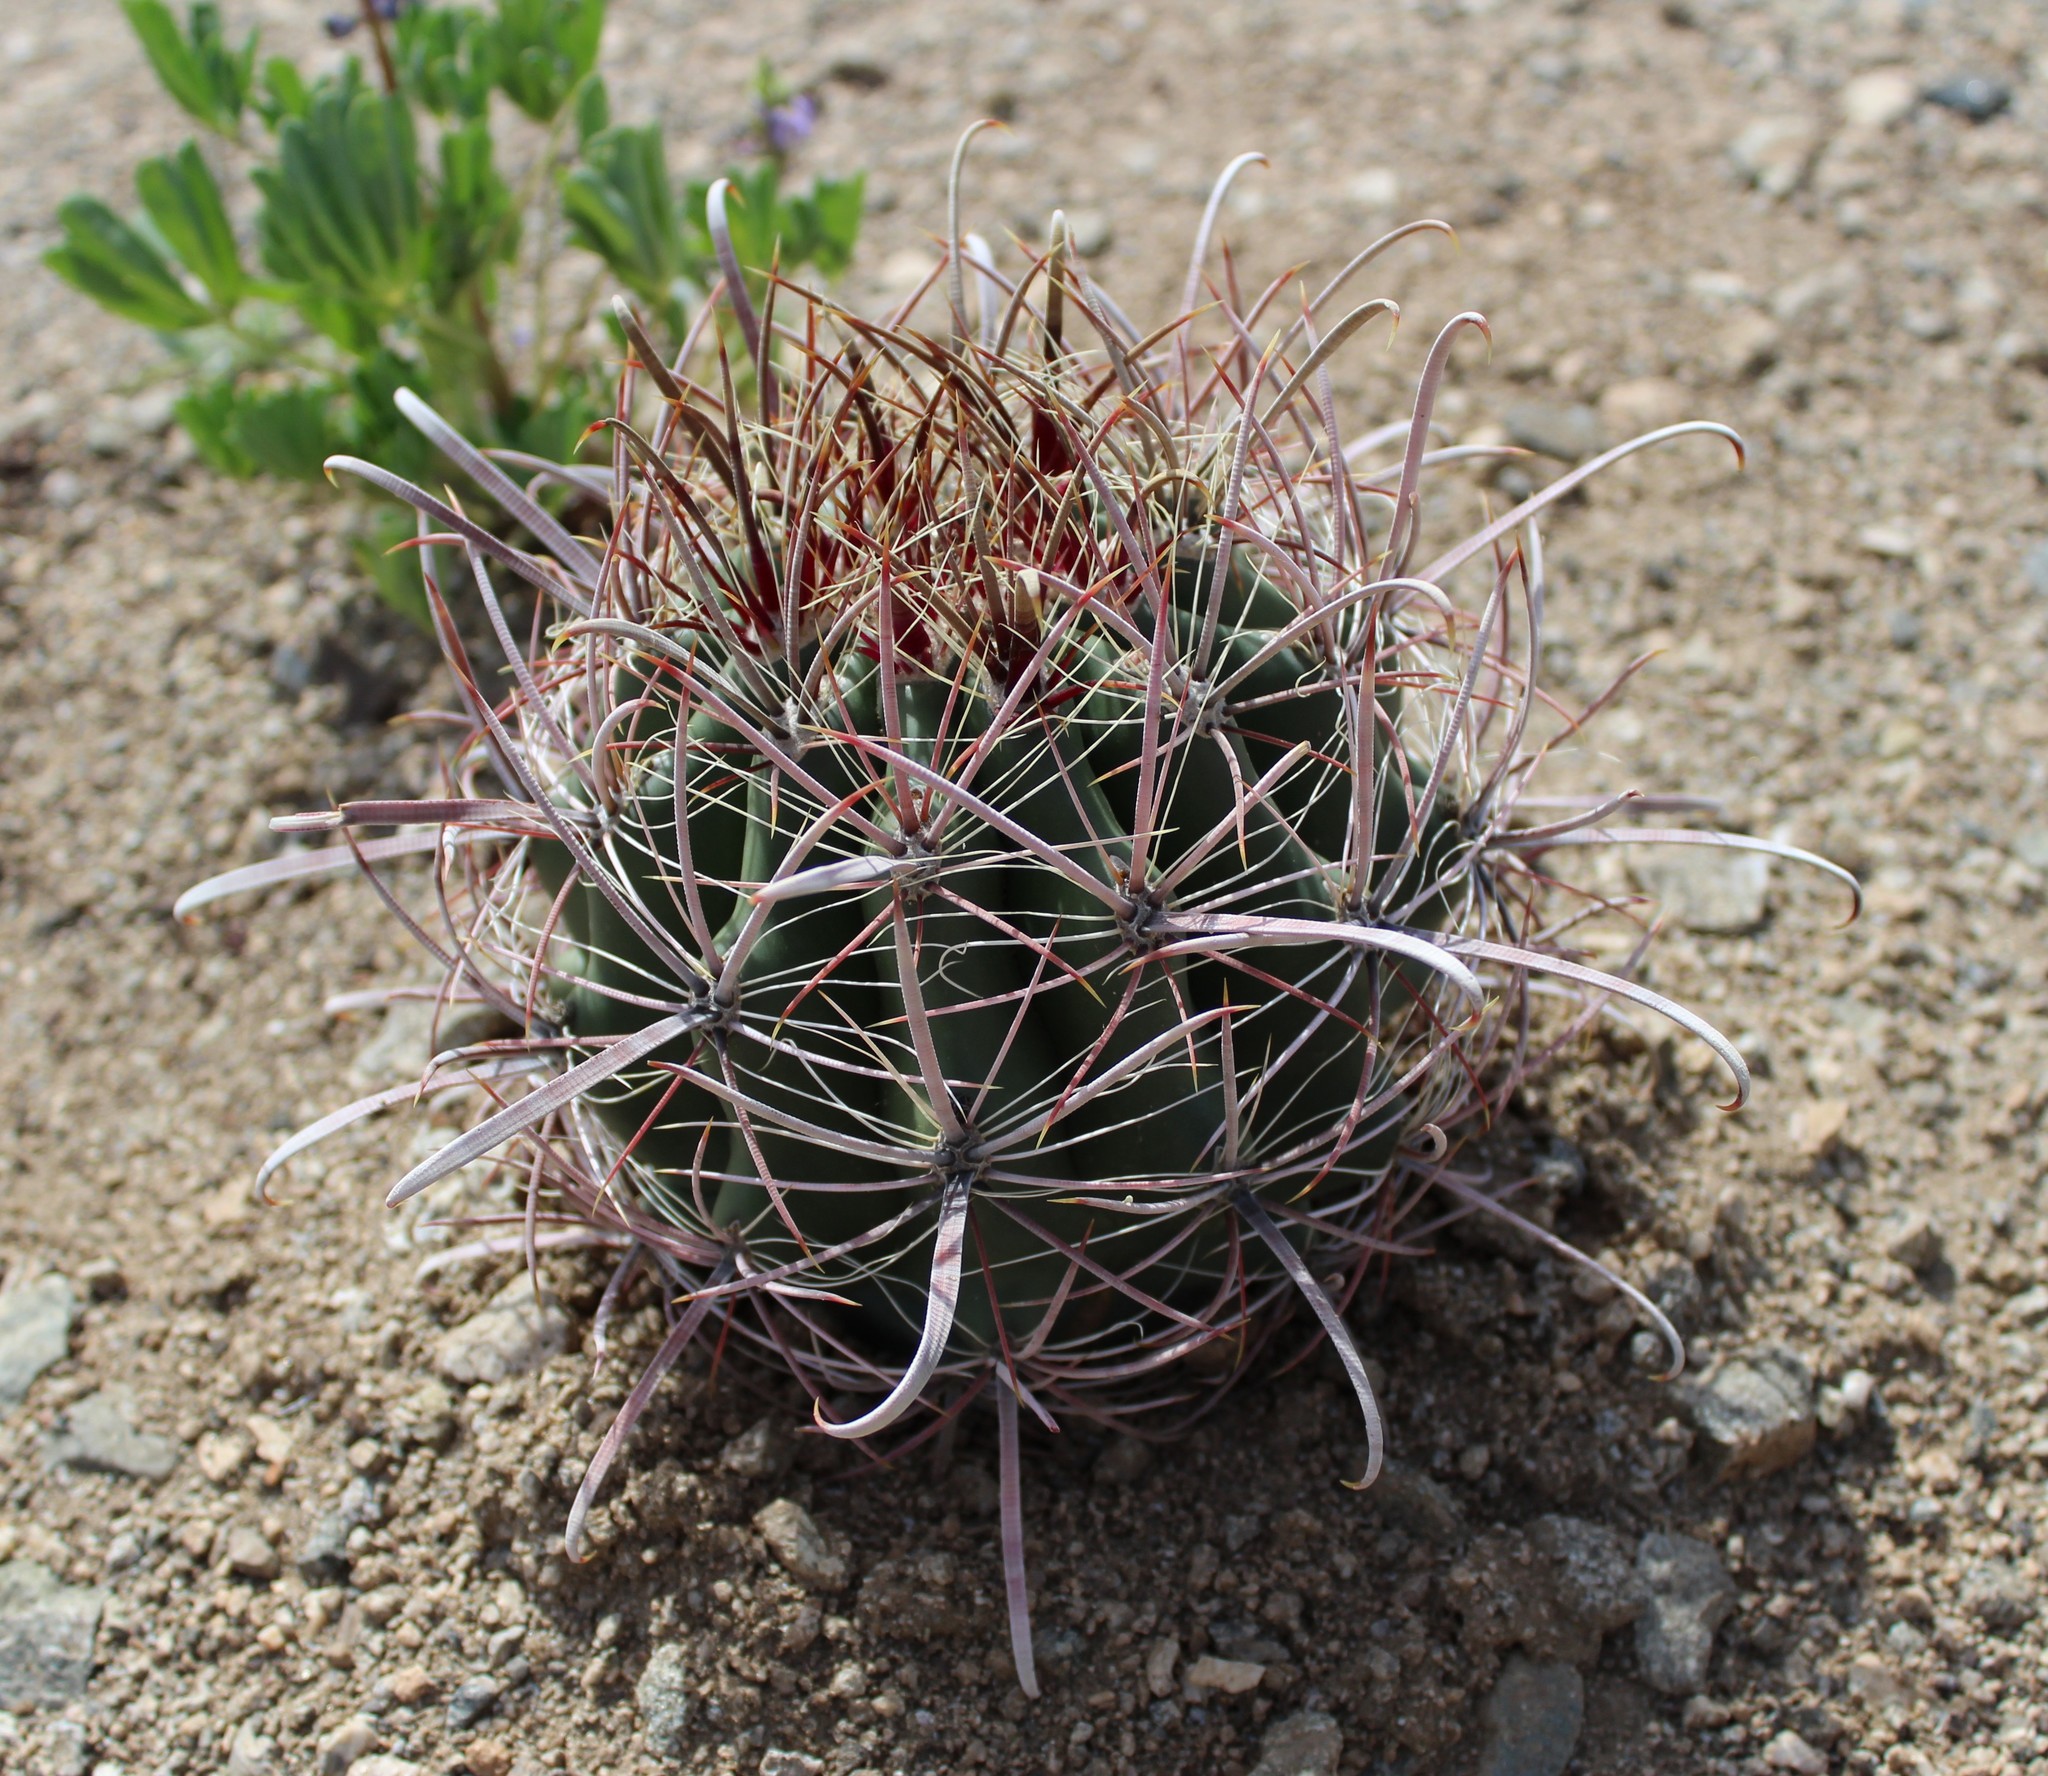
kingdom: Plantae
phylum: Tracheophyta
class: Magnoliopsida
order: Caryophyllales
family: Cactaceae
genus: Ferocactus
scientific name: Ferocactus cylindraceus
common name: California barrel cactus
